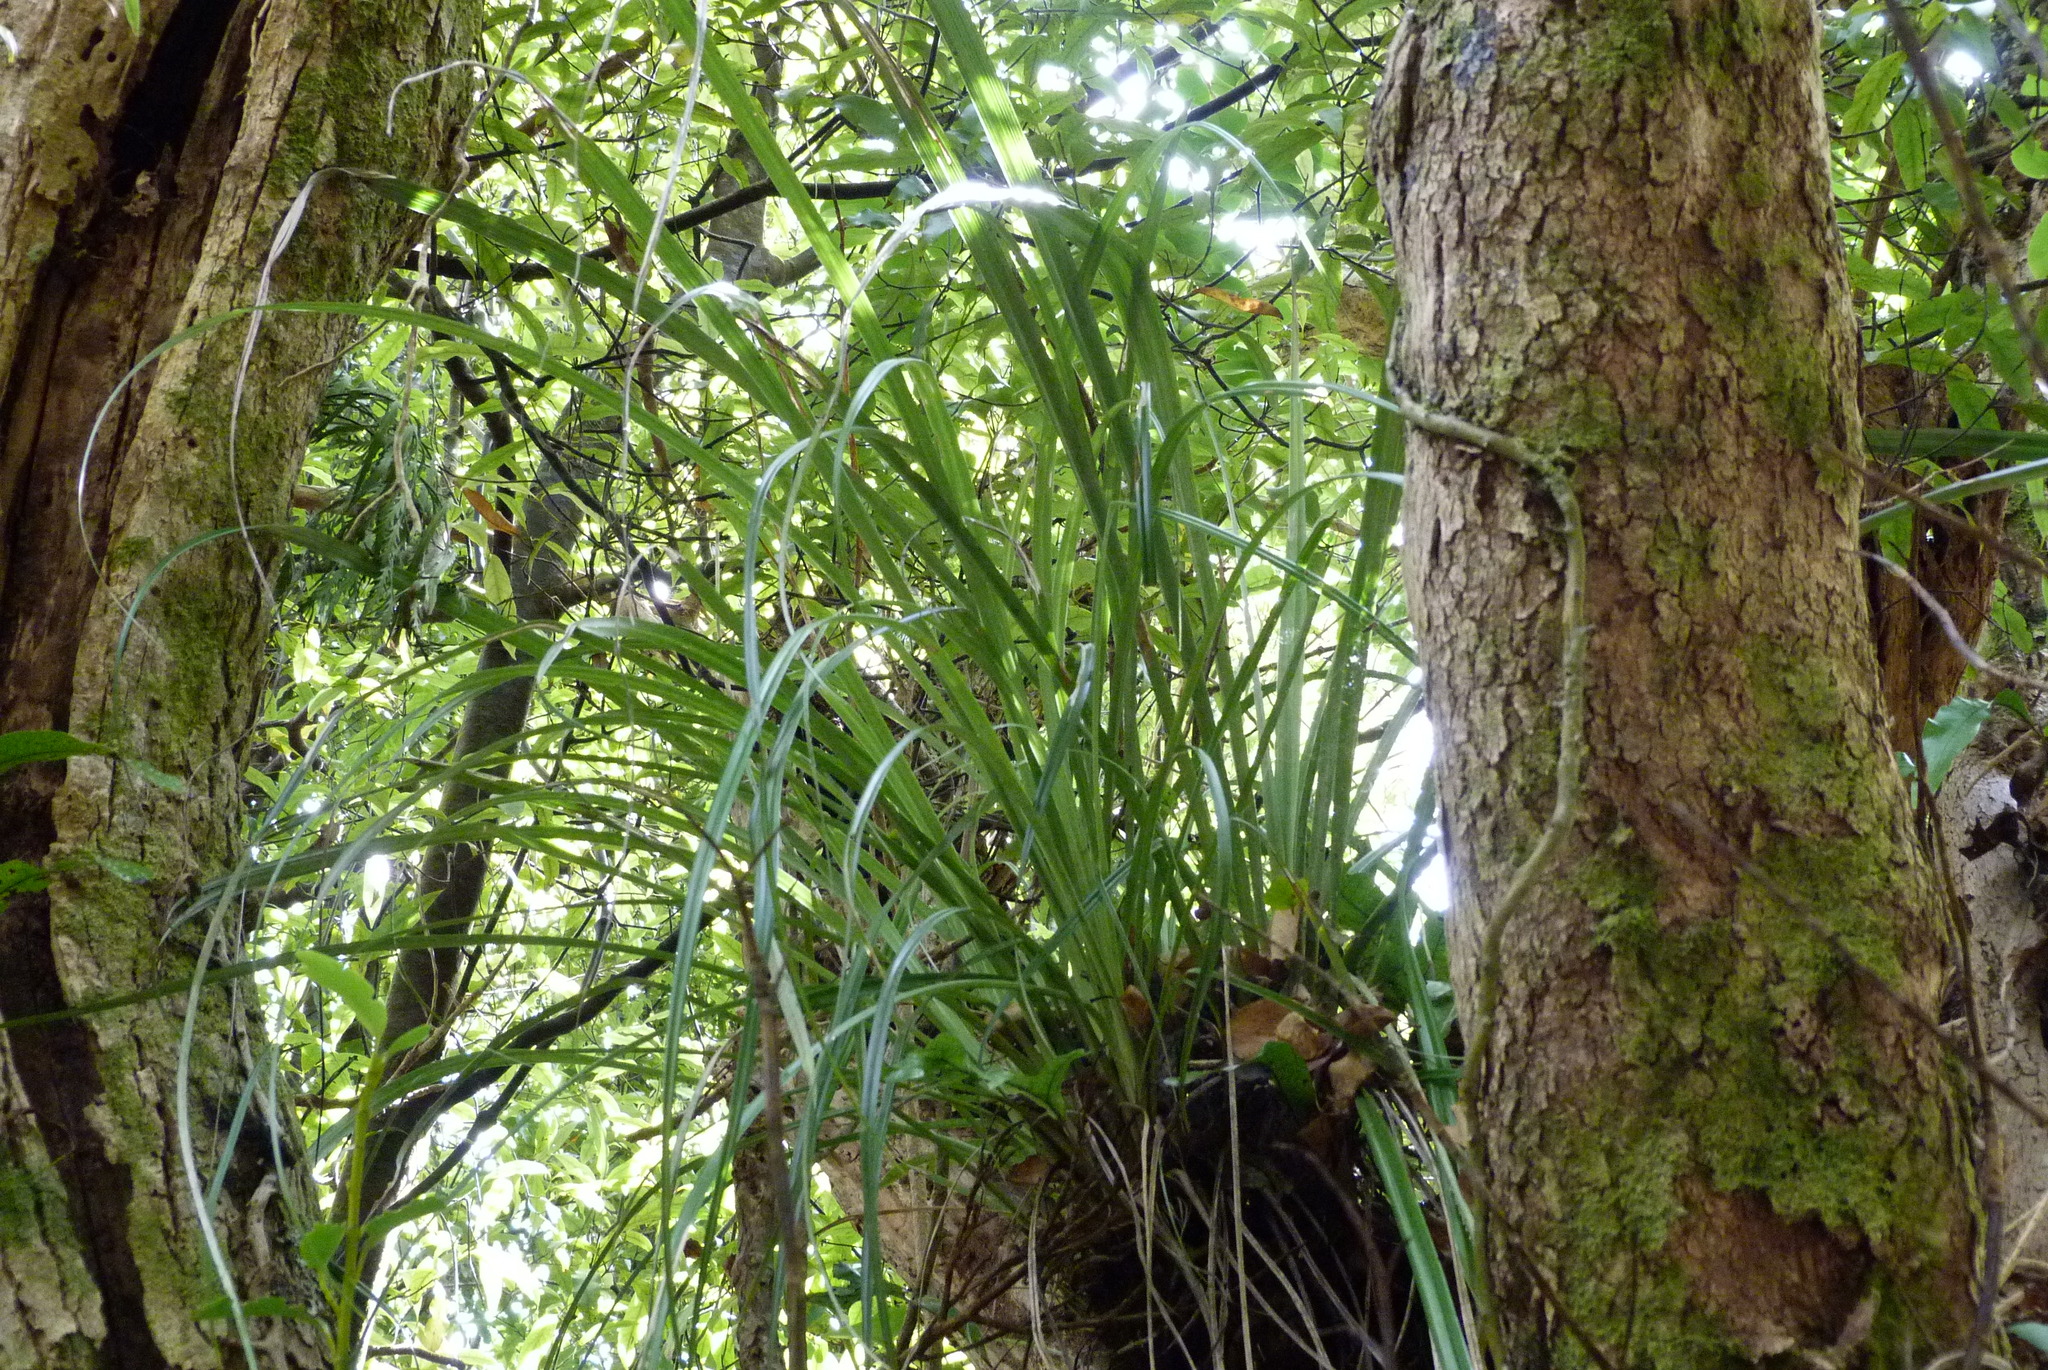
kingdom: Plantae
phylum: Tracheophyta
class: Liliopsida
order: Asparagales
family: Asteliaceae
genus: Astelia
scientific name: Astelia solandri
